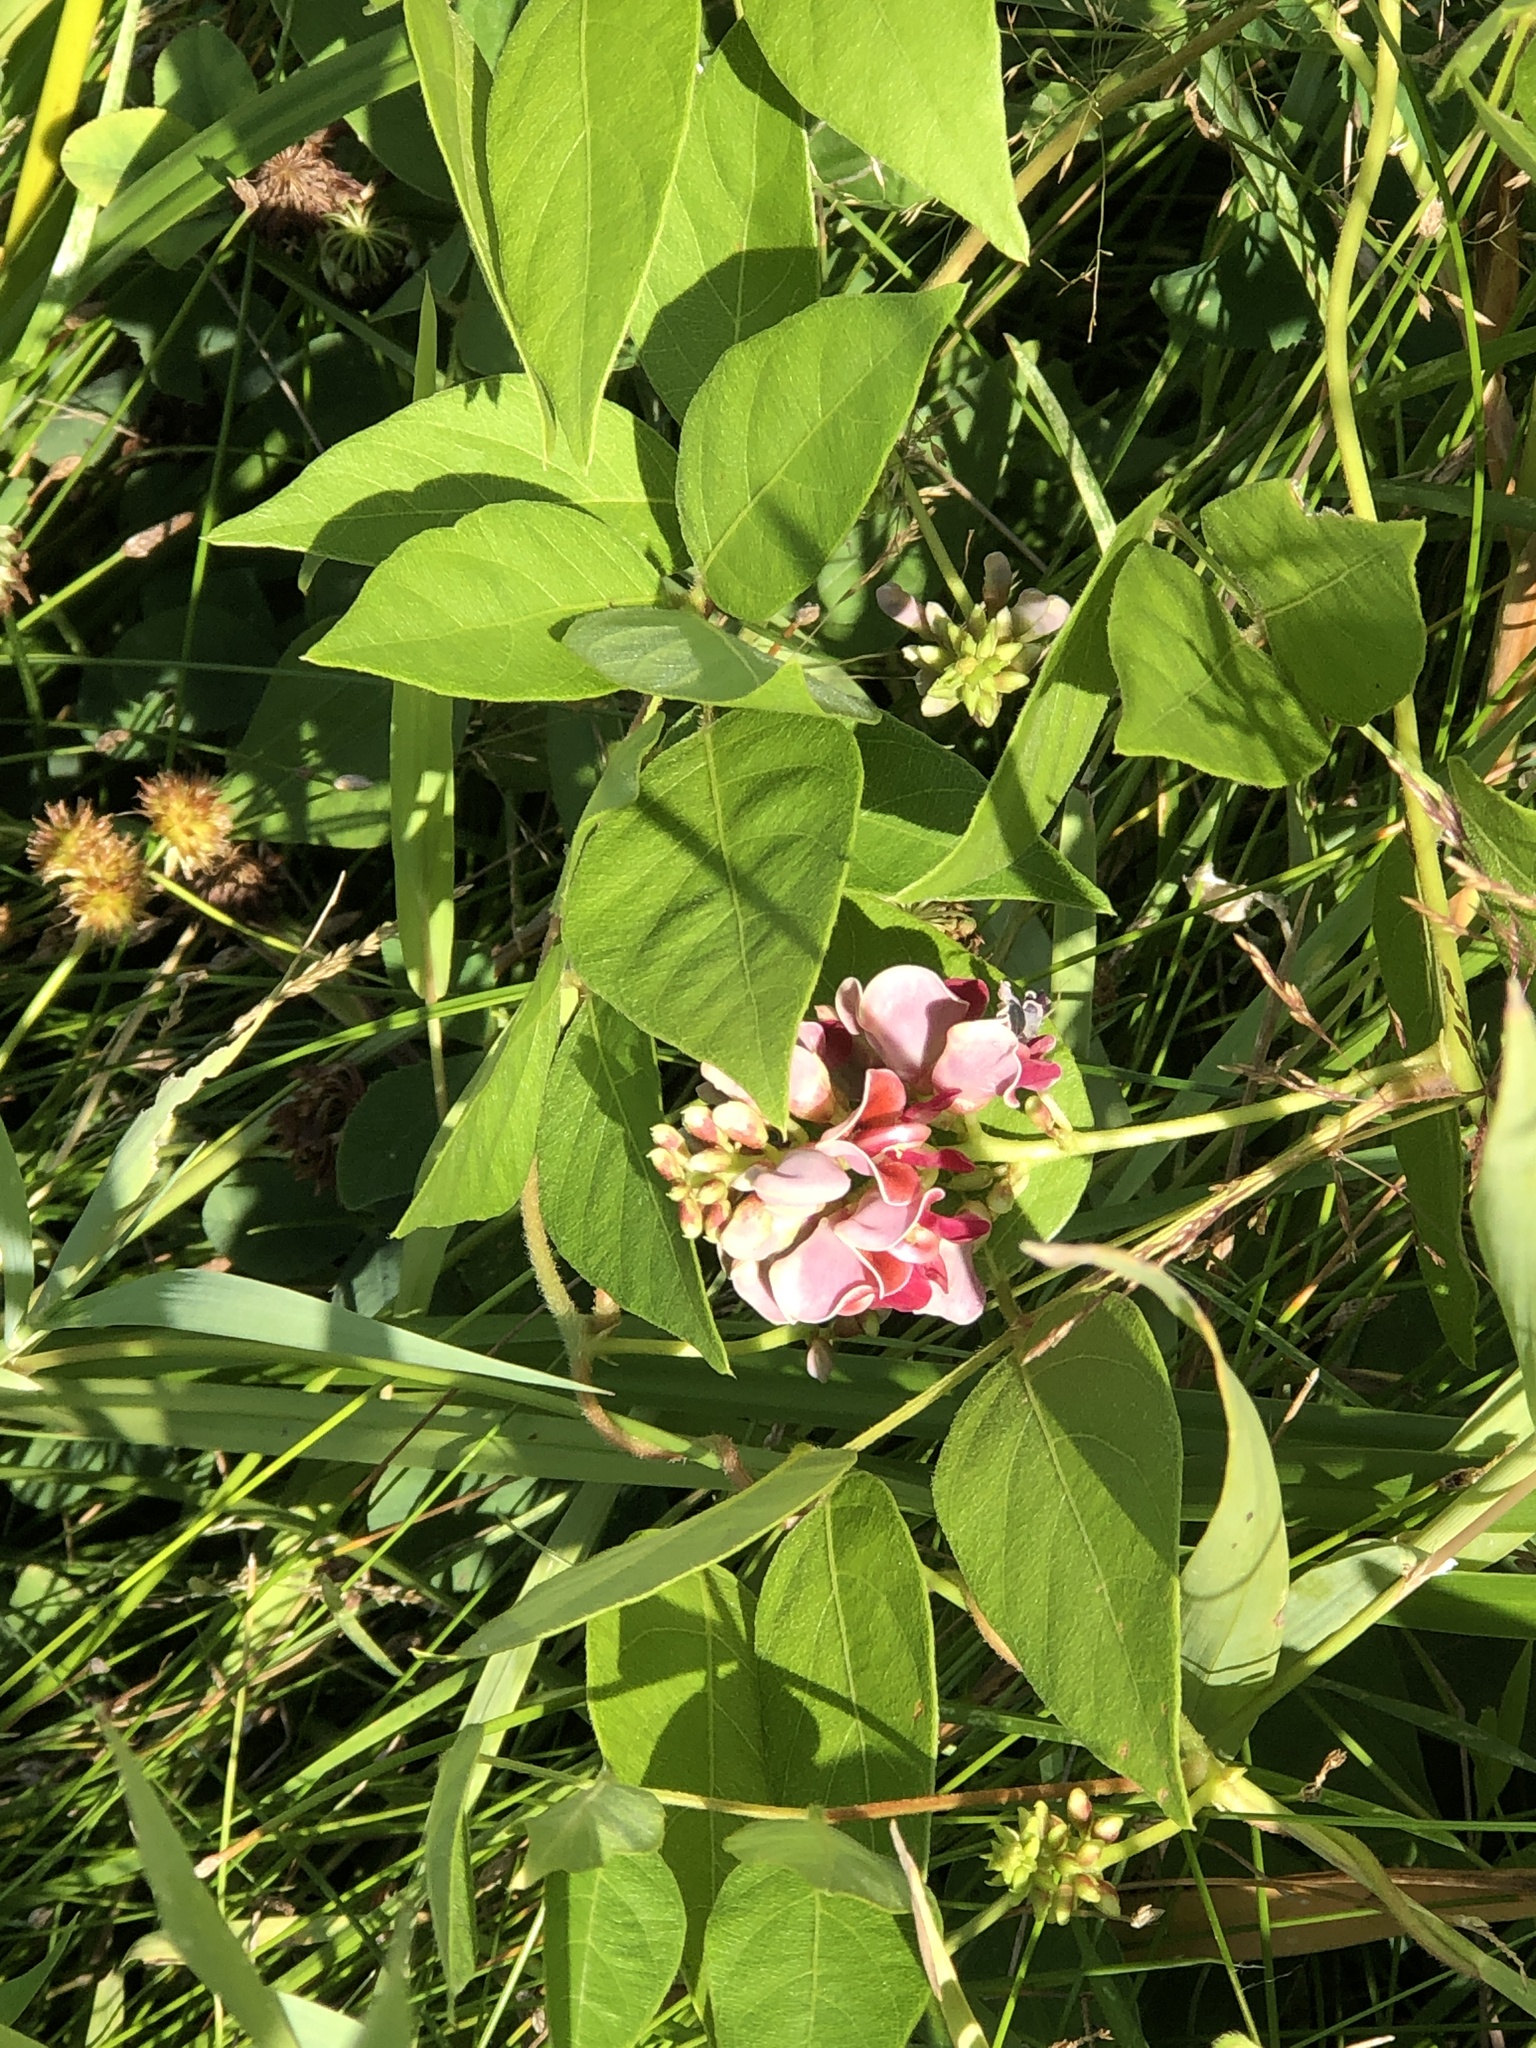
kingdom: Plantae
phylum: Tracheophyta
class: Magnoliopsida
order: Fabales
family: Fabaceae
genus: Apios
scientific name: Apios americana
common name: American potato-bean
